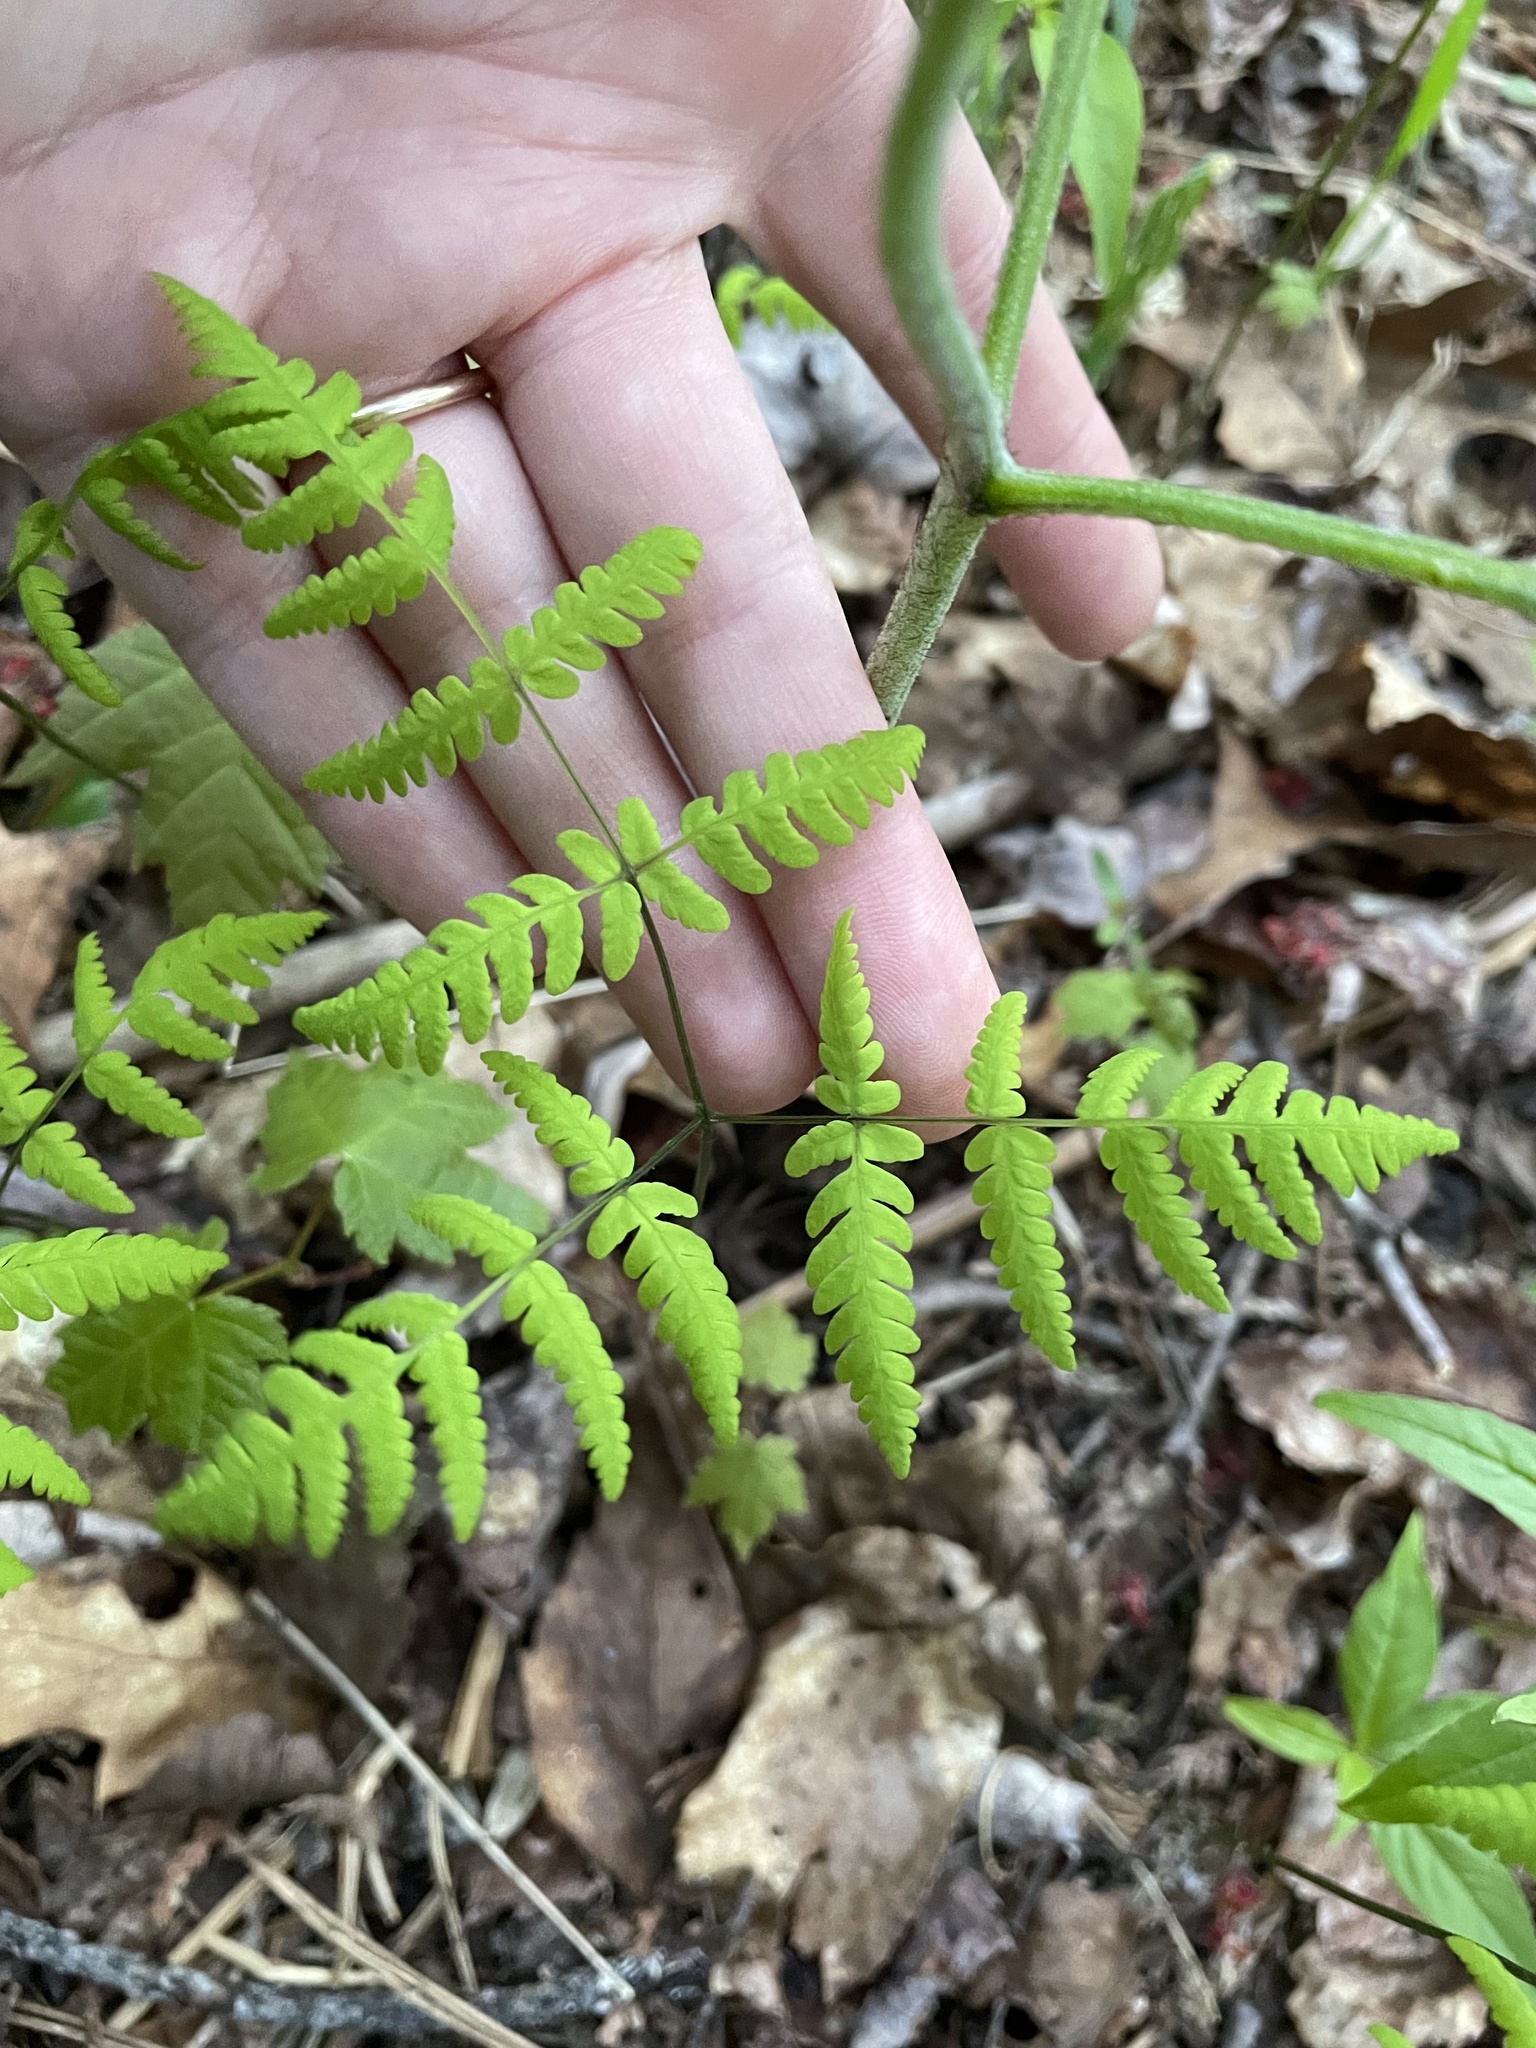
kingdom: Plantae
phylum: Tracheophyta
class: Polypodiopsida
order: Polypodiales
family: Cystopteridaceae
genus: Gymnocarpium
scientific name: Gymnocarpium dryopteris
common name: Oak fern
